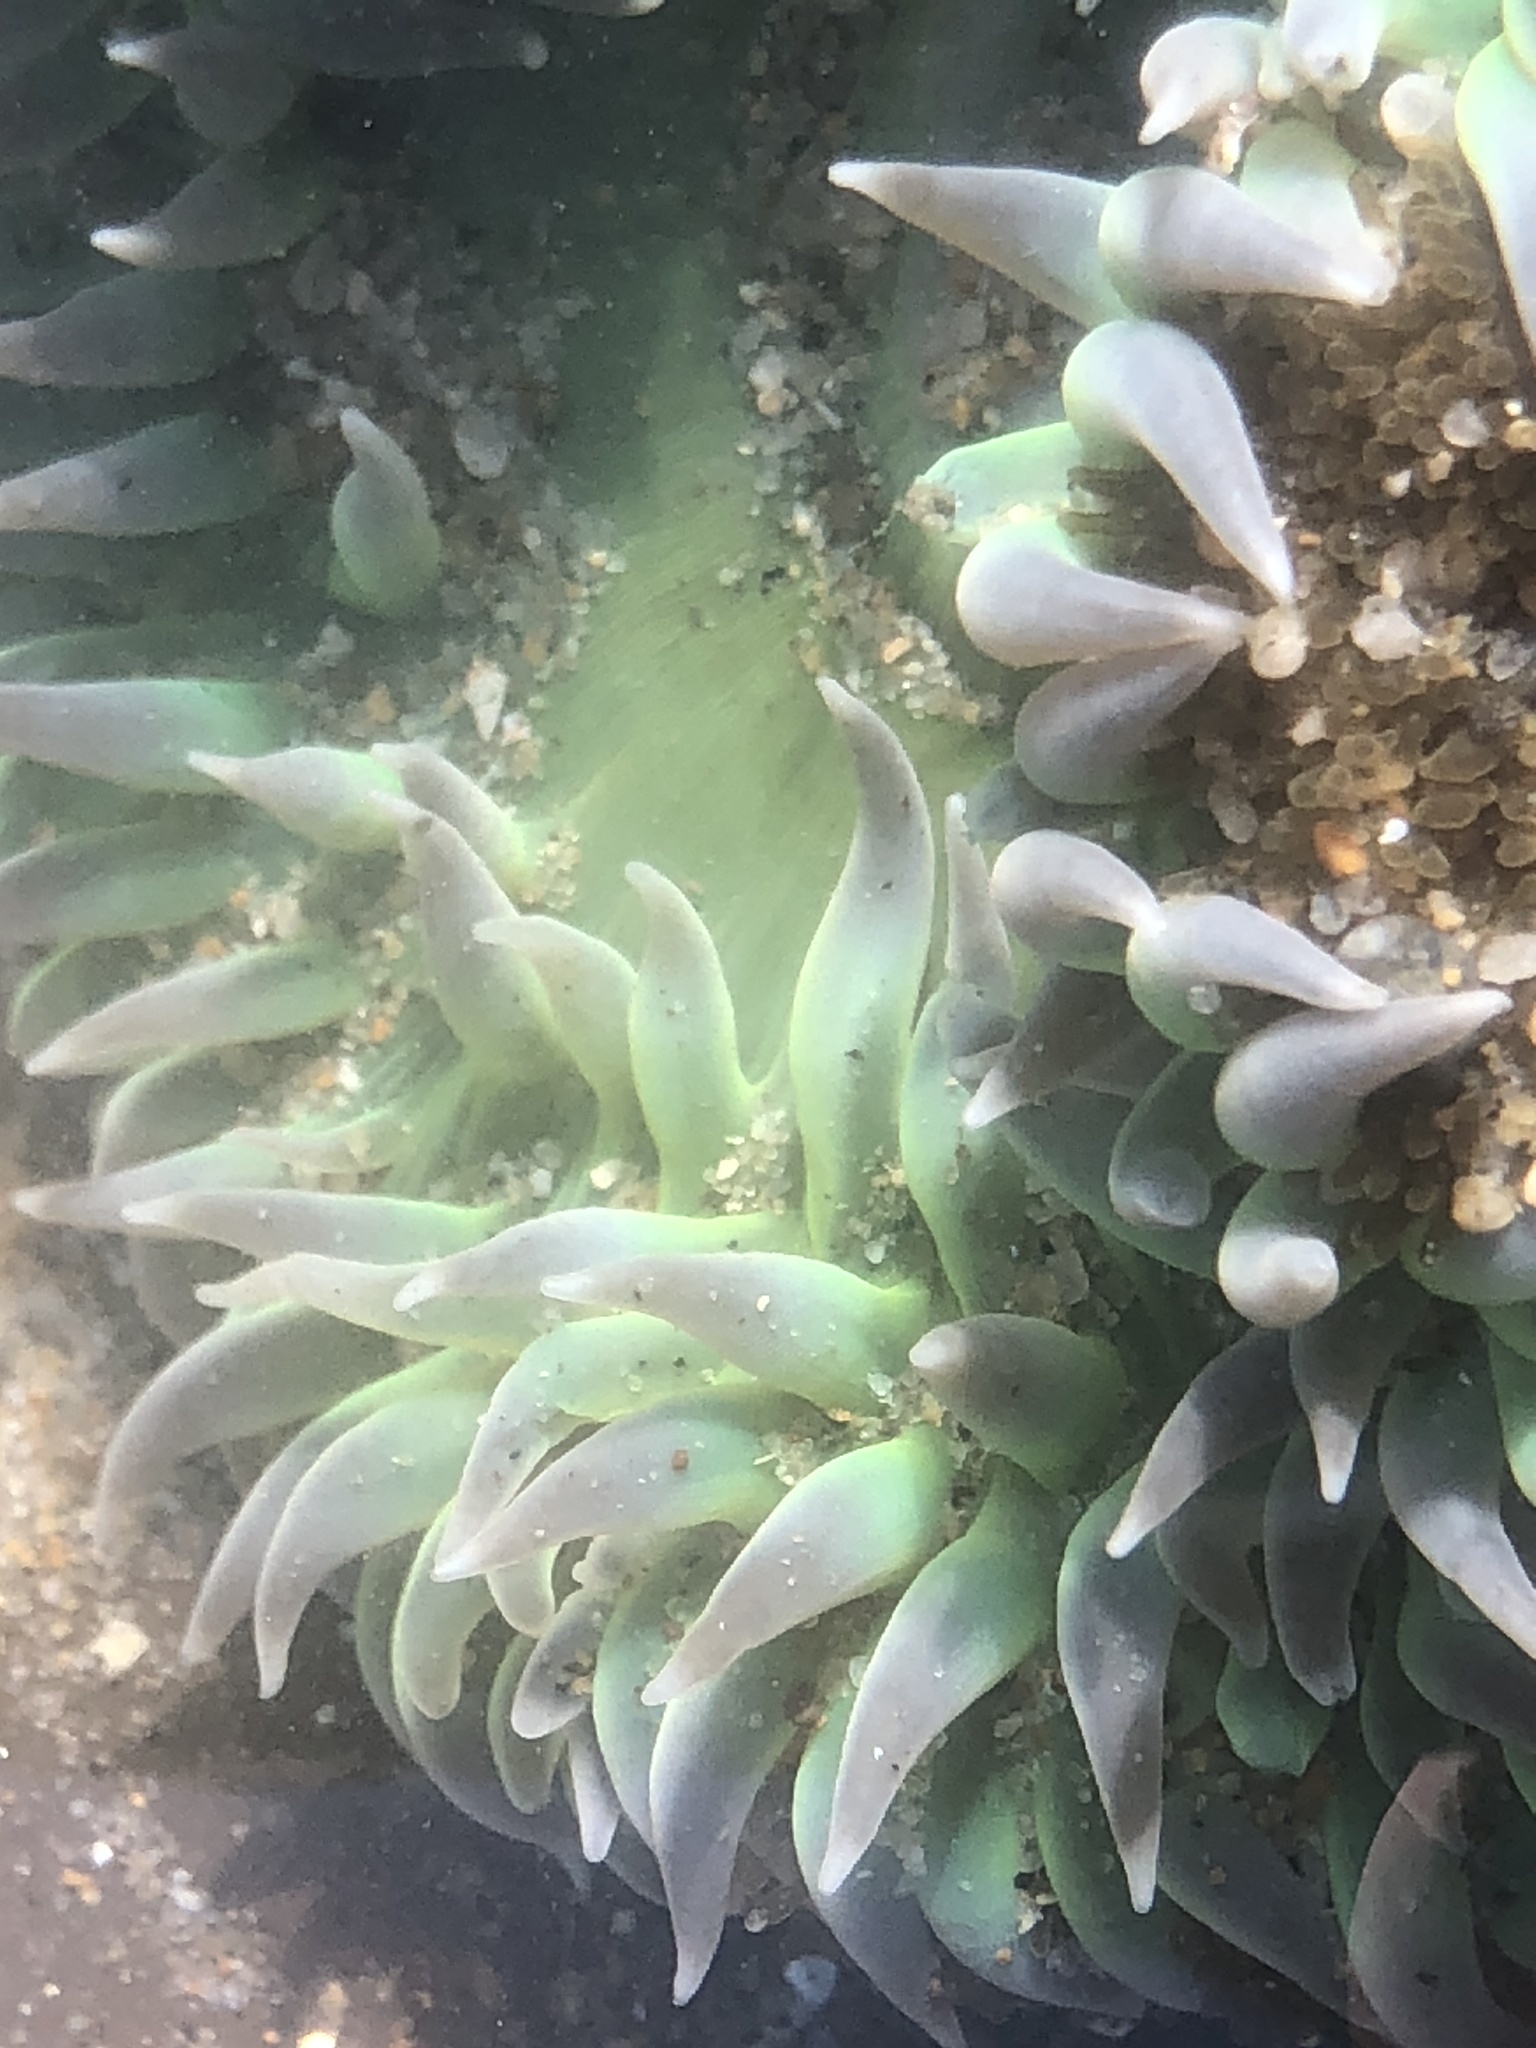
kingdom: Animalia
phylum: Cnidaria
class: Anthozoa
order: Actiniaria
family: Actiniidae
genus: Anthopleura
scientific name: Anthopleura xanthogrammica
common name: Giant green anemone
